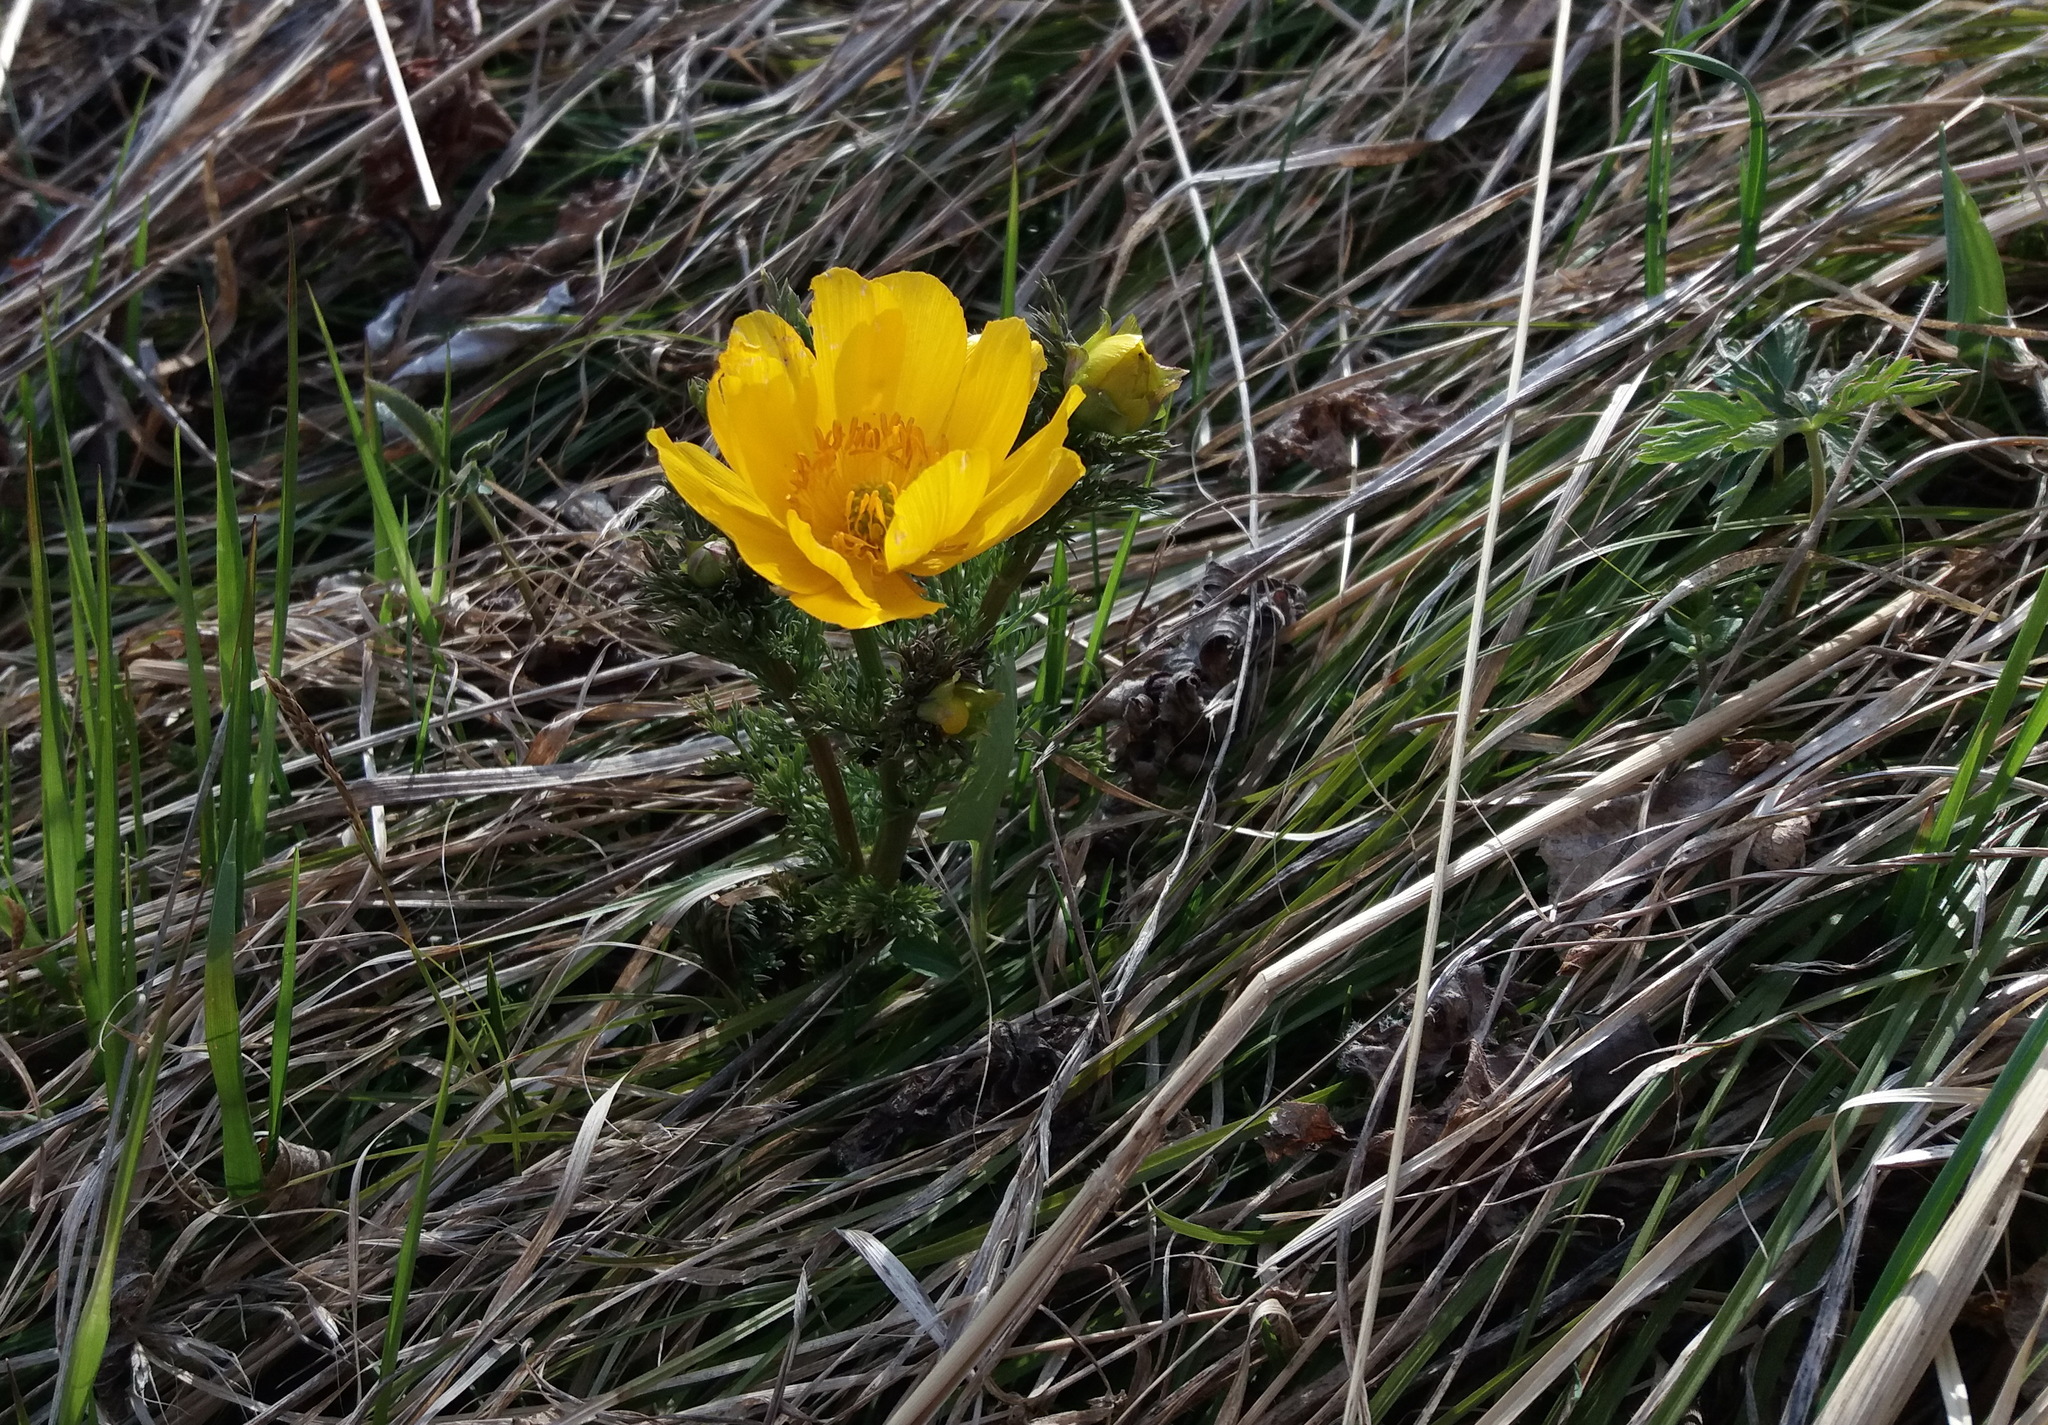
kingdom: Plantae
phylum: Tracheophyta
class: Magnoliopsida
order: Ranunculales
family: Ranunculaceae
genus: Adonis
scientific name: Adonis
